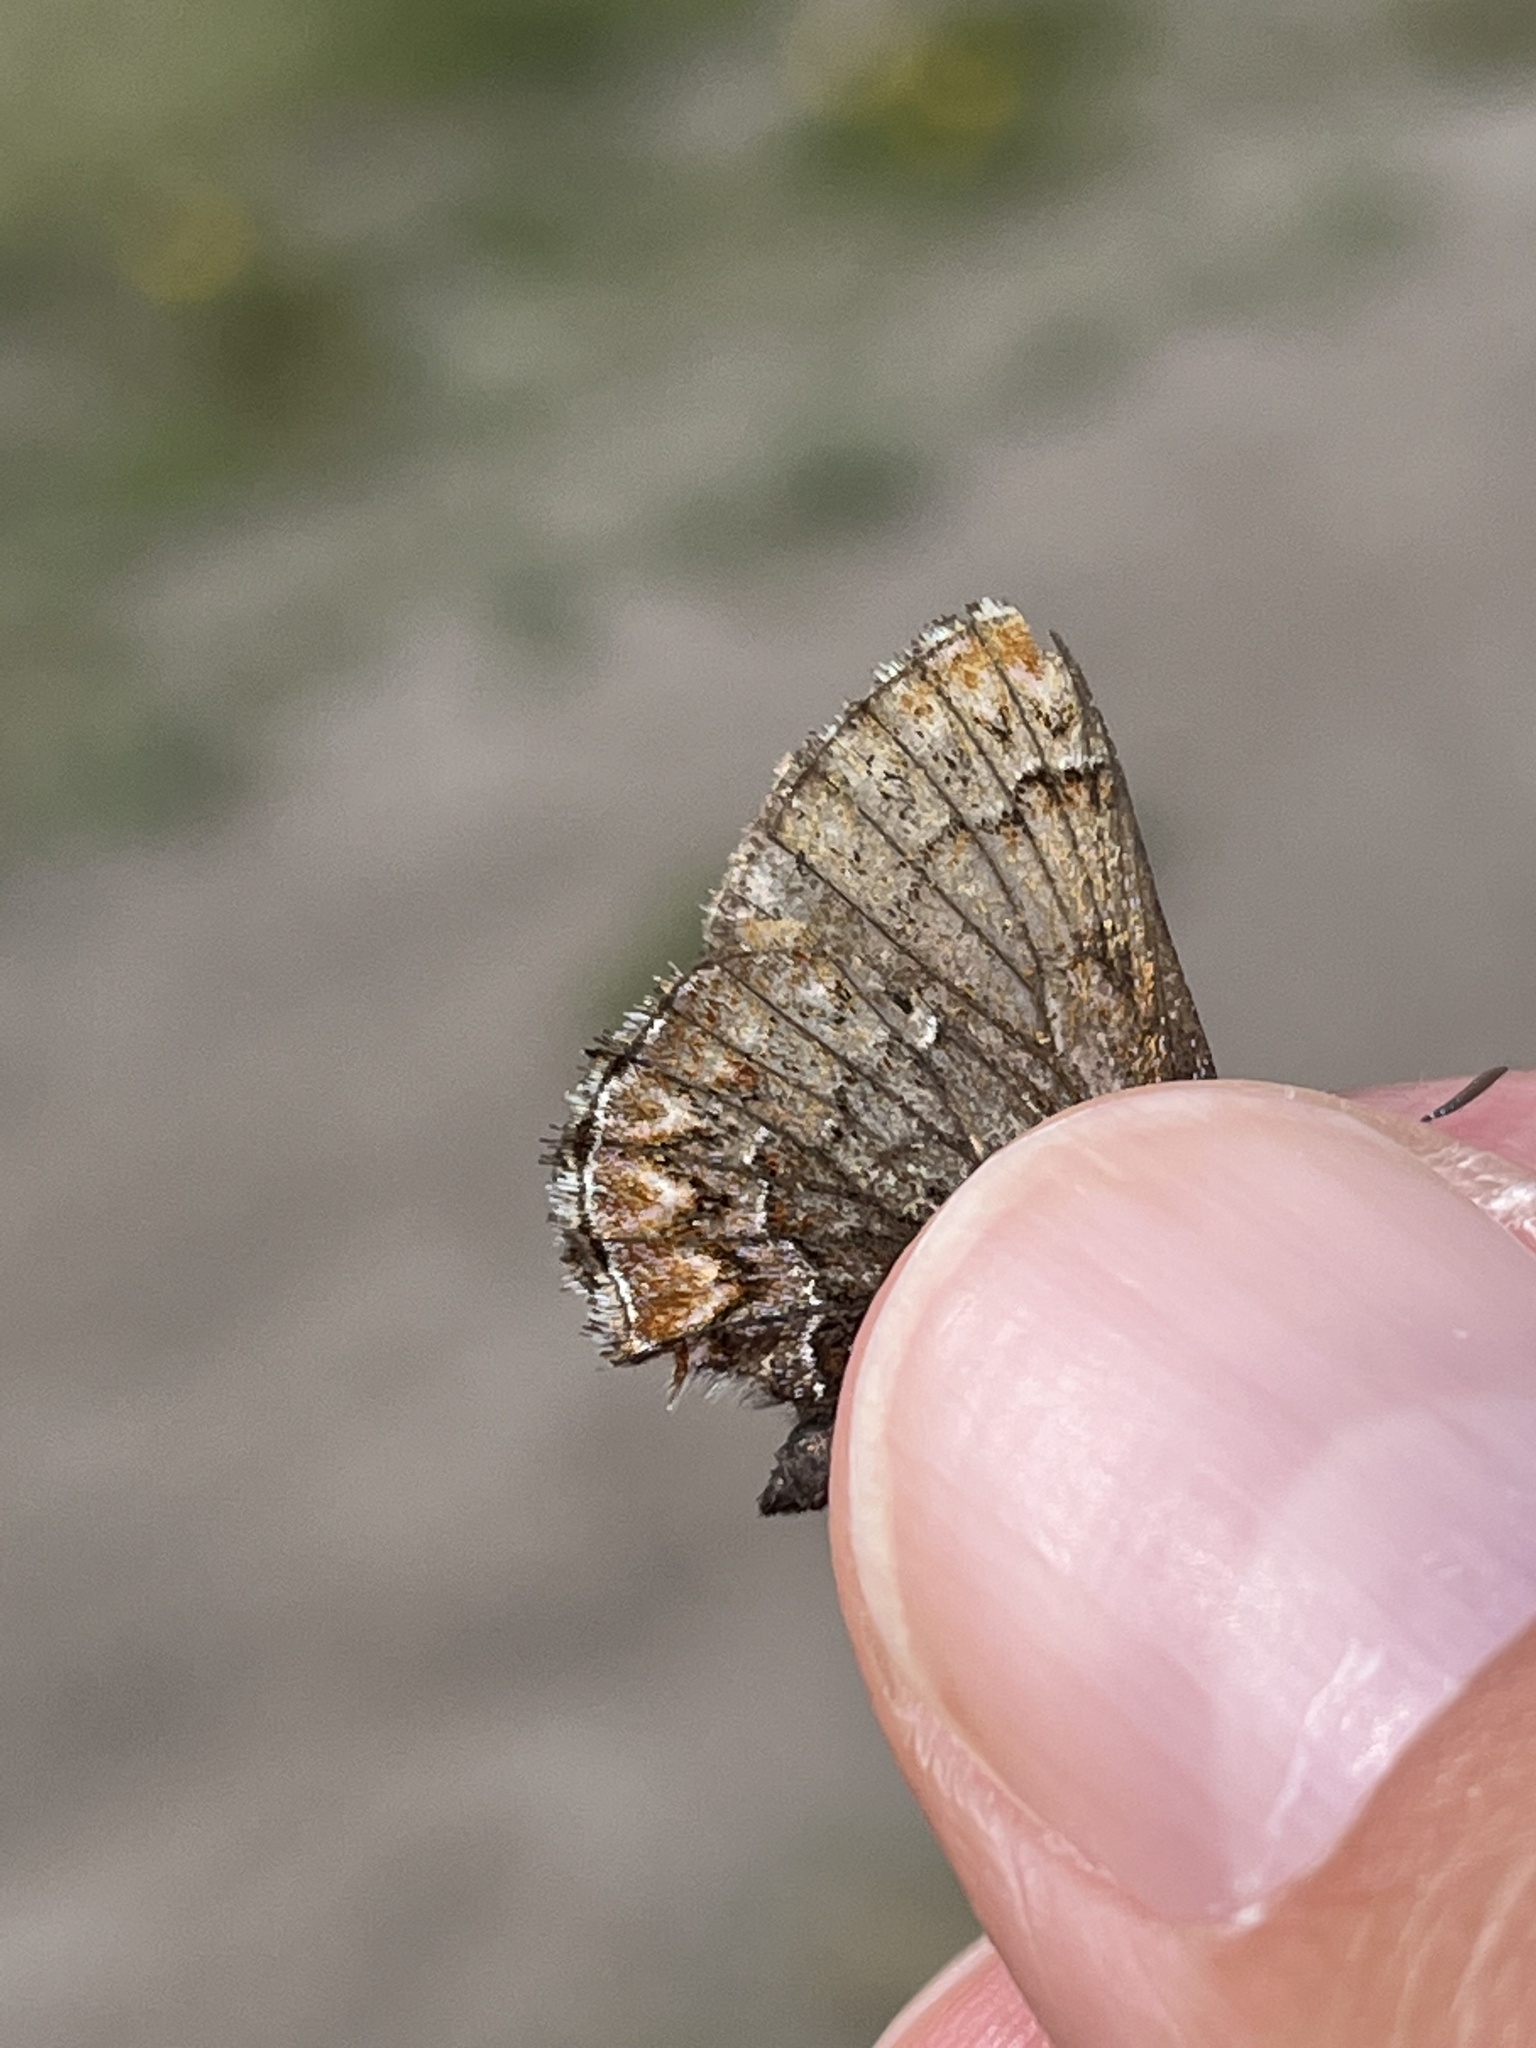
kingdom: Animalia
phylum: Arthropoda
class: Insecta
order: Lepidoptera
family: Lycaenidae
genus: Incisalia
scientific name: Incisalia eryphon
